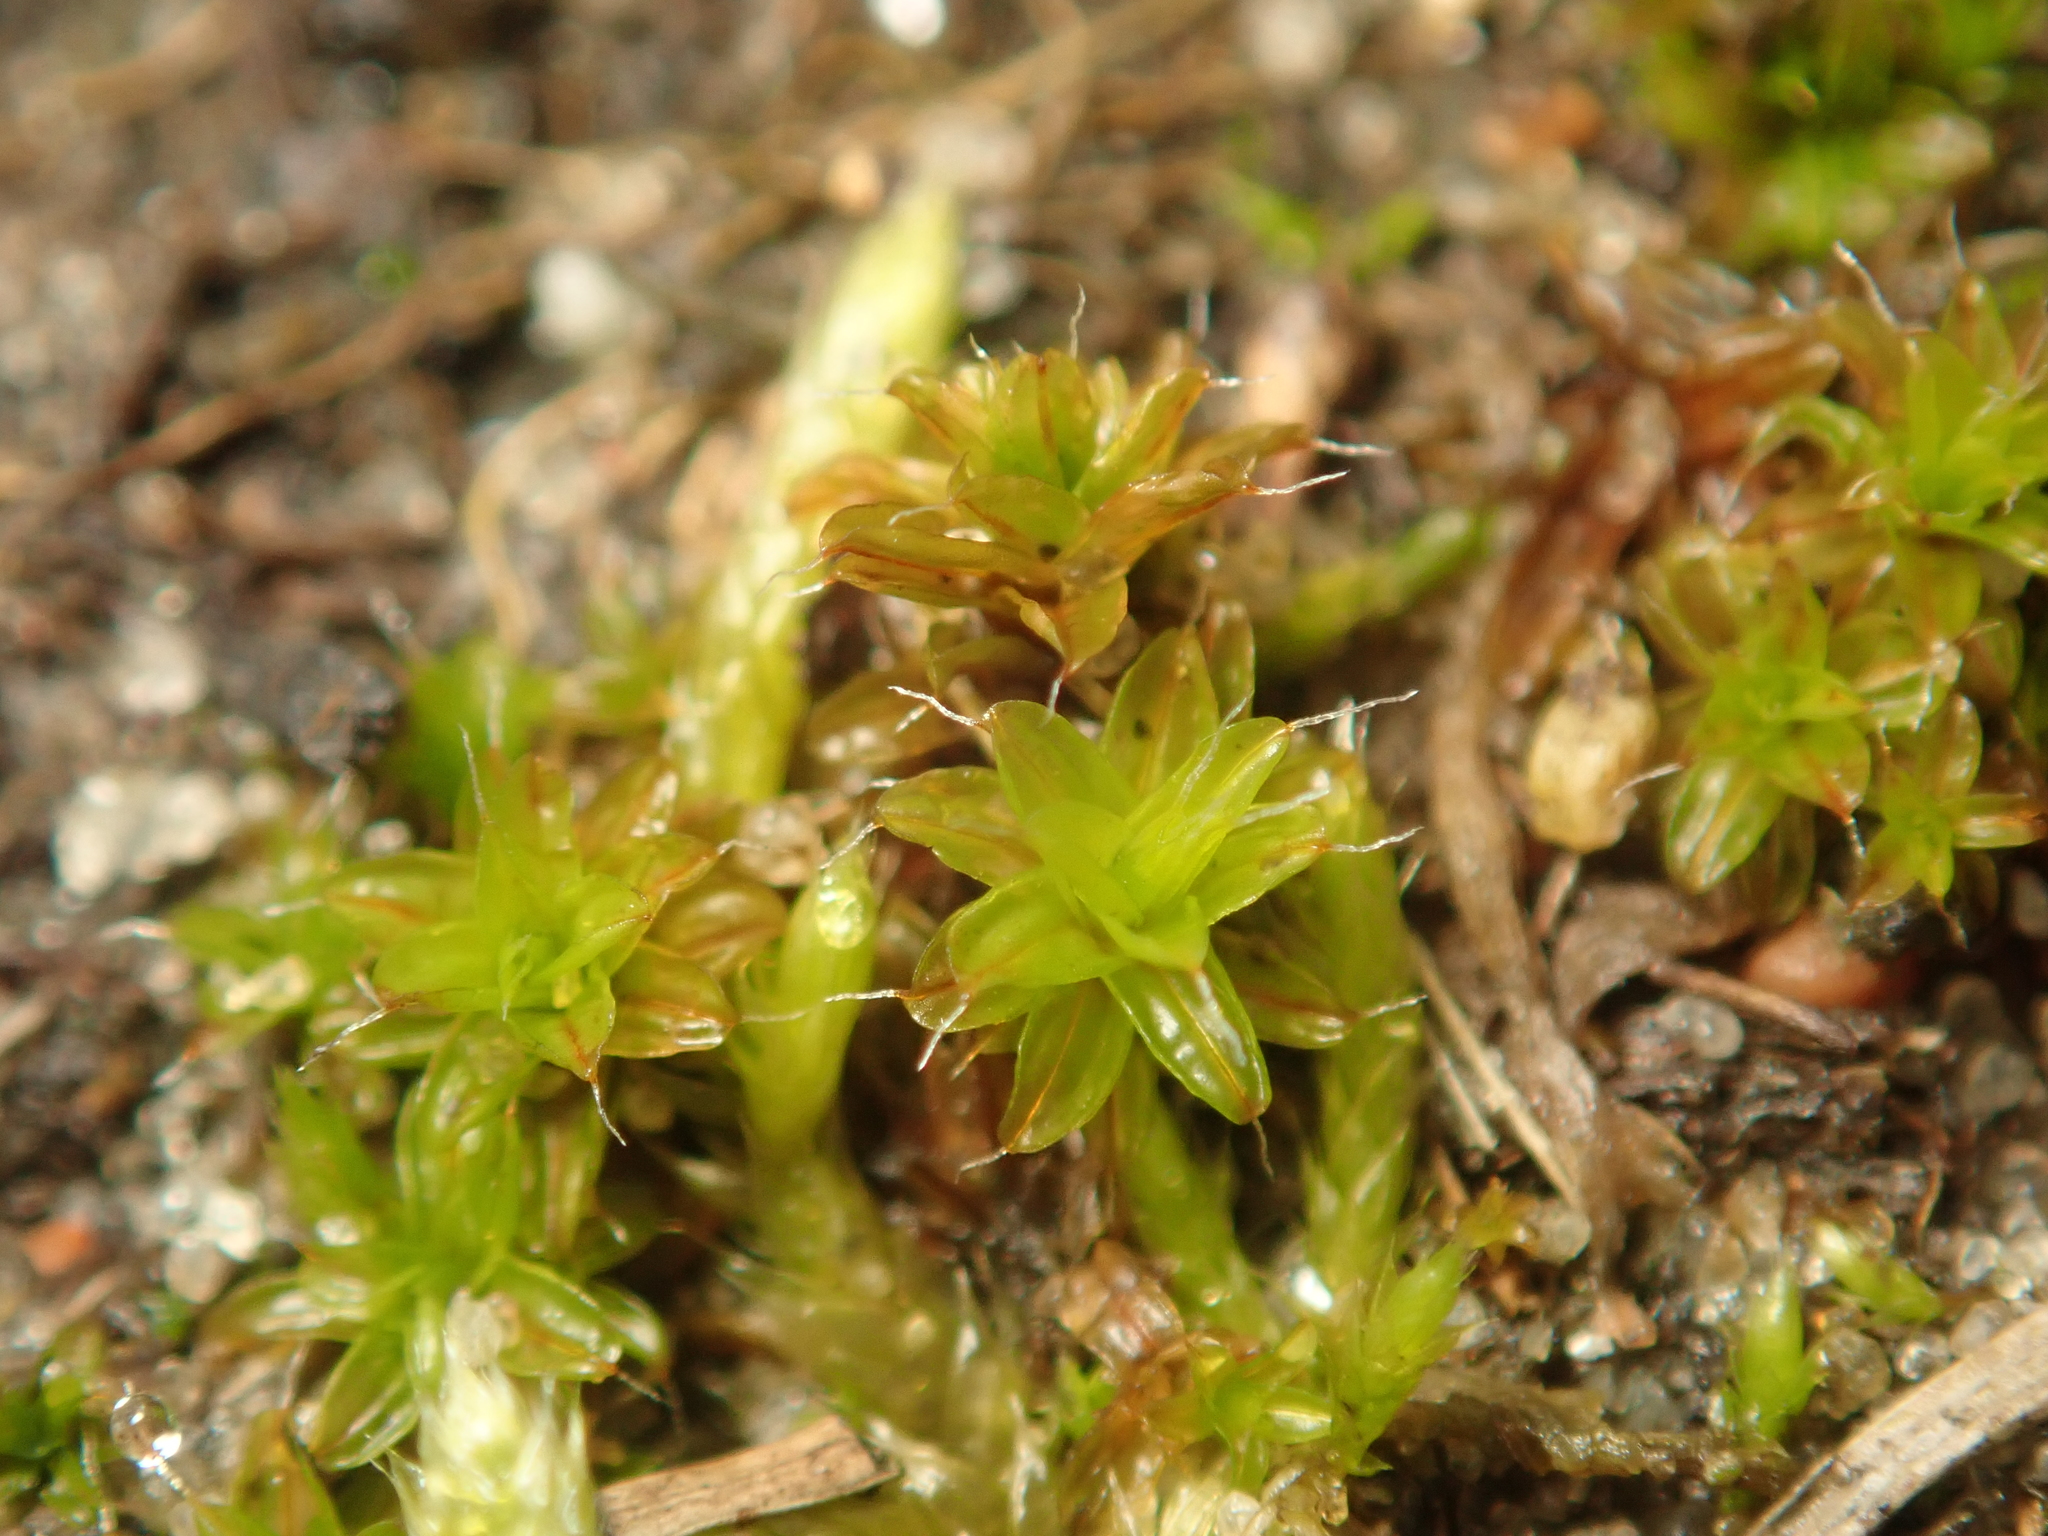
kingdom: Plantae
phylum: Bryophyta
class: Bryopsida
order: Pottiales
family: Pottiaceae
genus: Syntrichia
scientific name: Syntrichia ruralis
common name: Sidewalk screw moss
